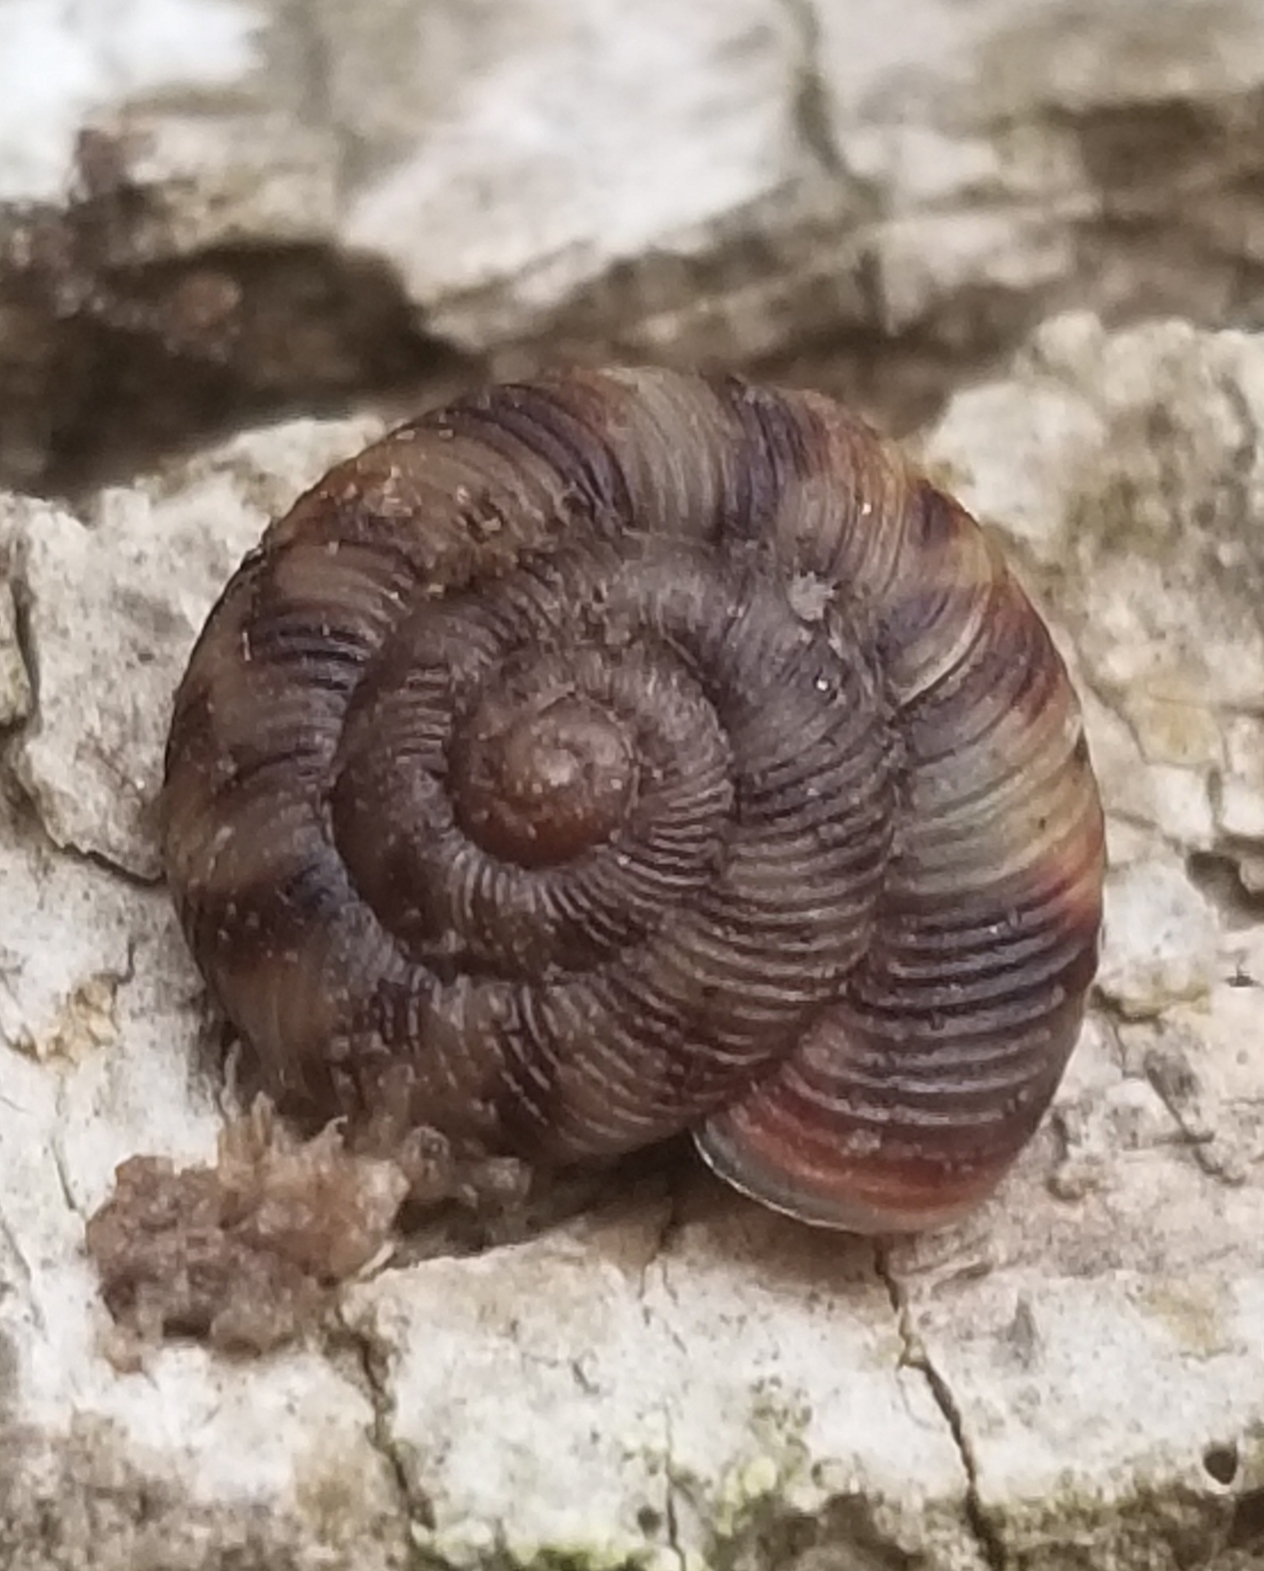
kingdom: Animalia
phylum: Mollusca
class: Gastropoda
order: Stylommatophora
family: Discidae
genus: Anguispira
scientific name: Anguispira alternata
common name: Flamed tigersnail
